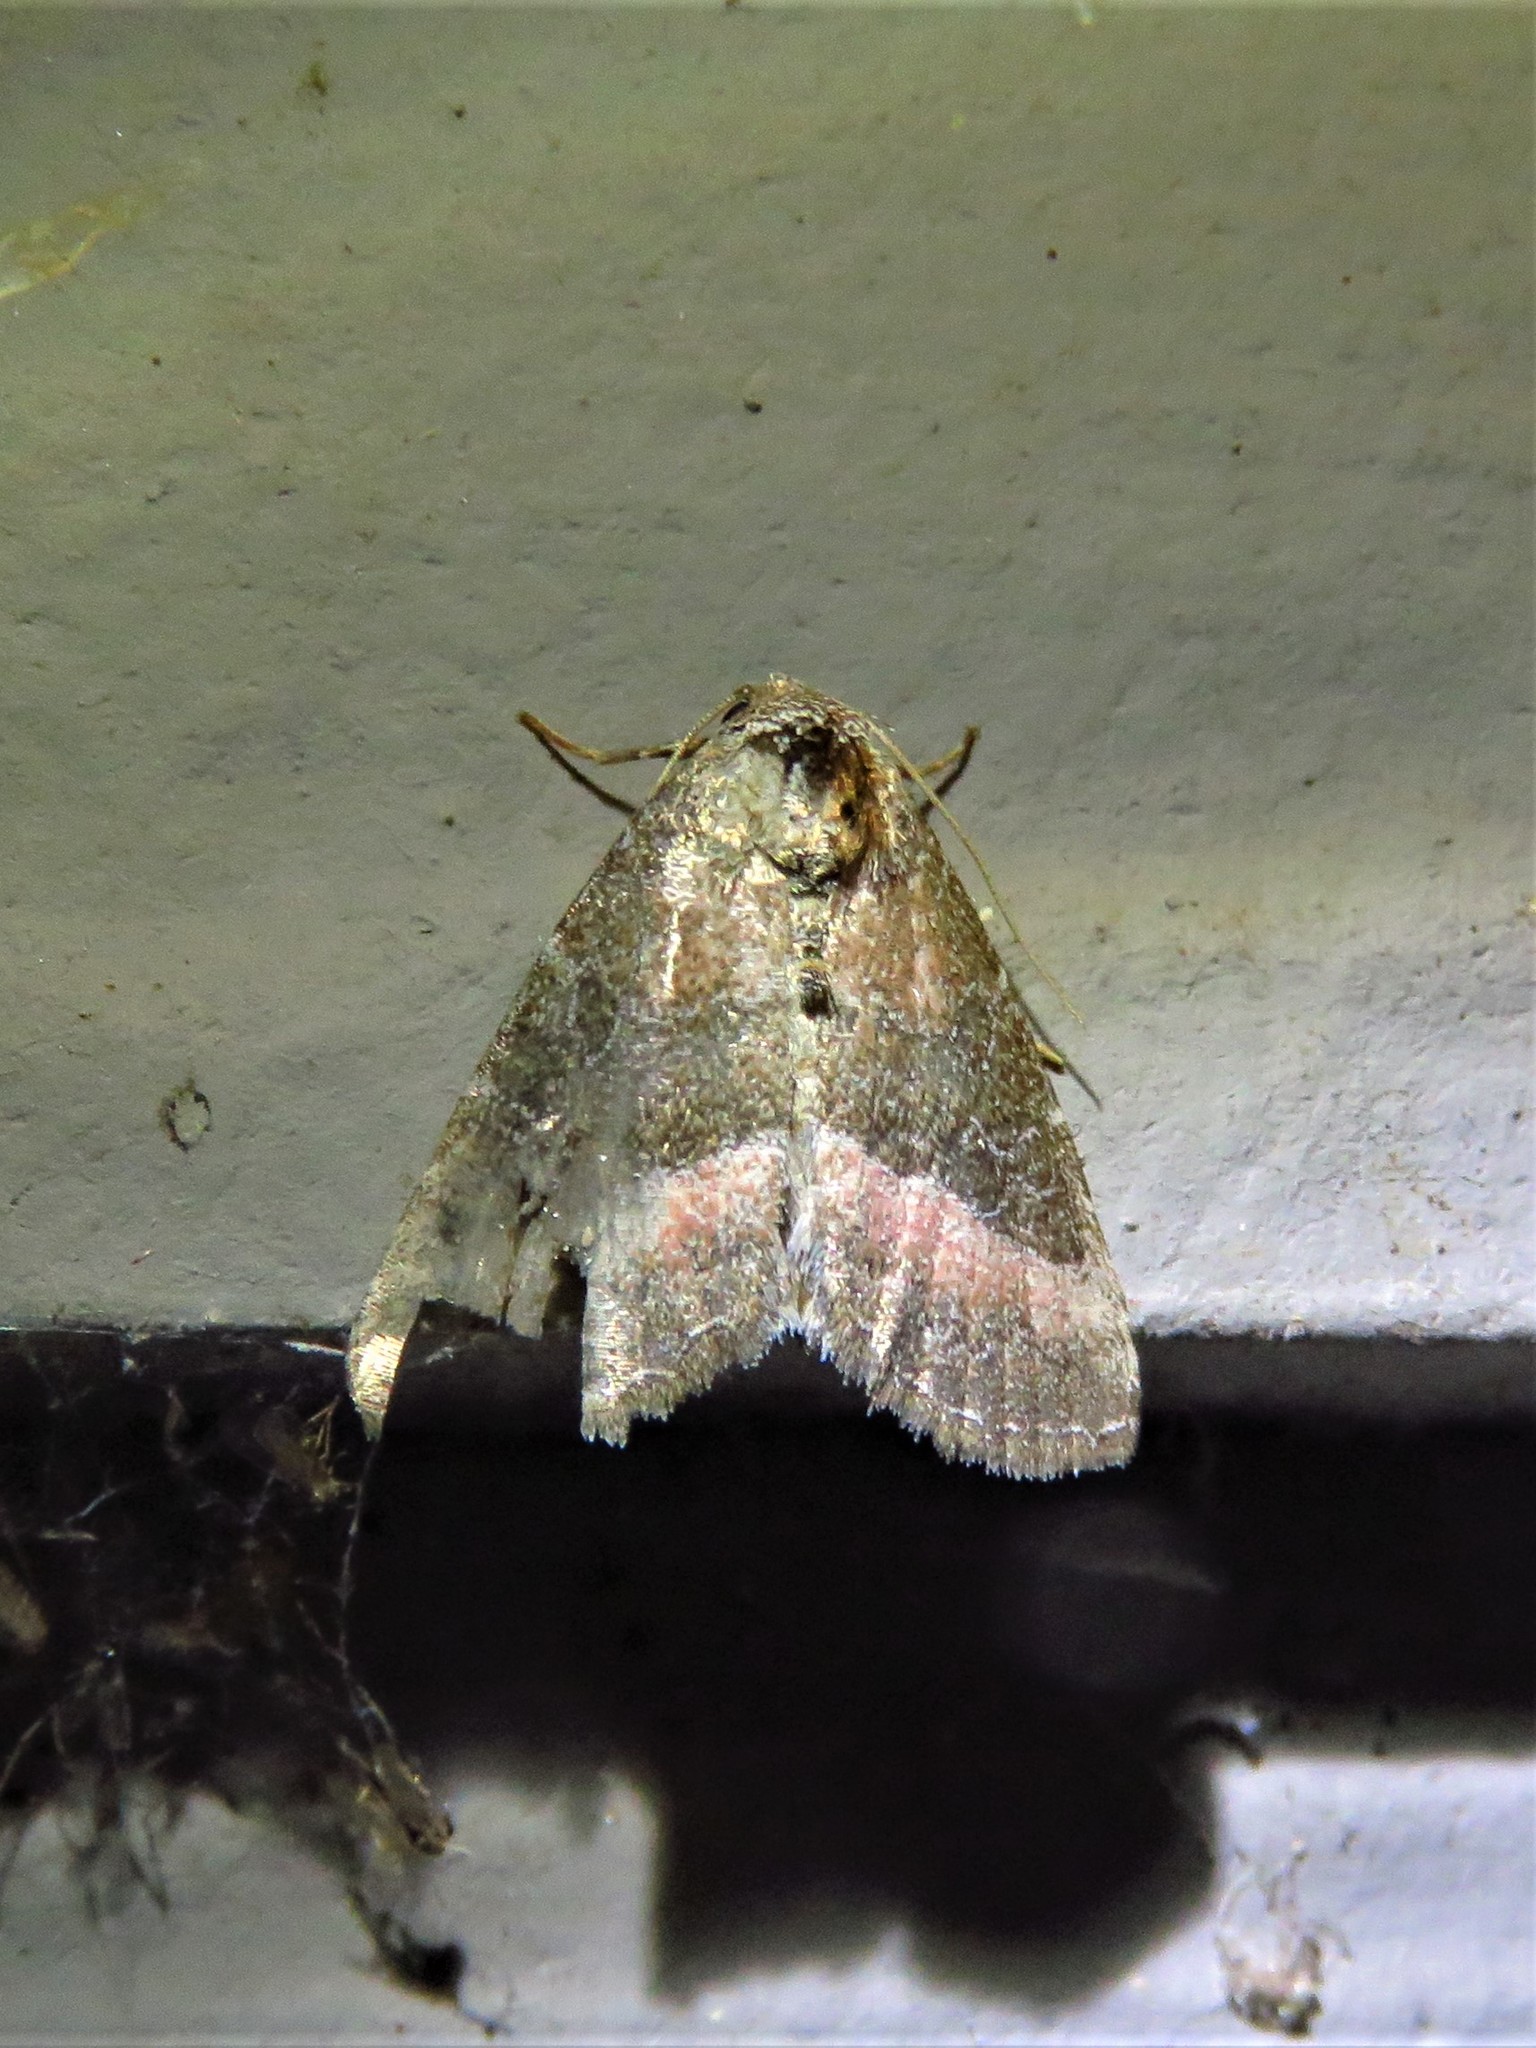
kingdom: Animalia
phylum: Arthropoda
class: Insecta
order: Lepidoptera
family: Noctuidae
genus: Ogdoconta
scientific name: Ogdoconta cinereola
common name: Common pinkband
